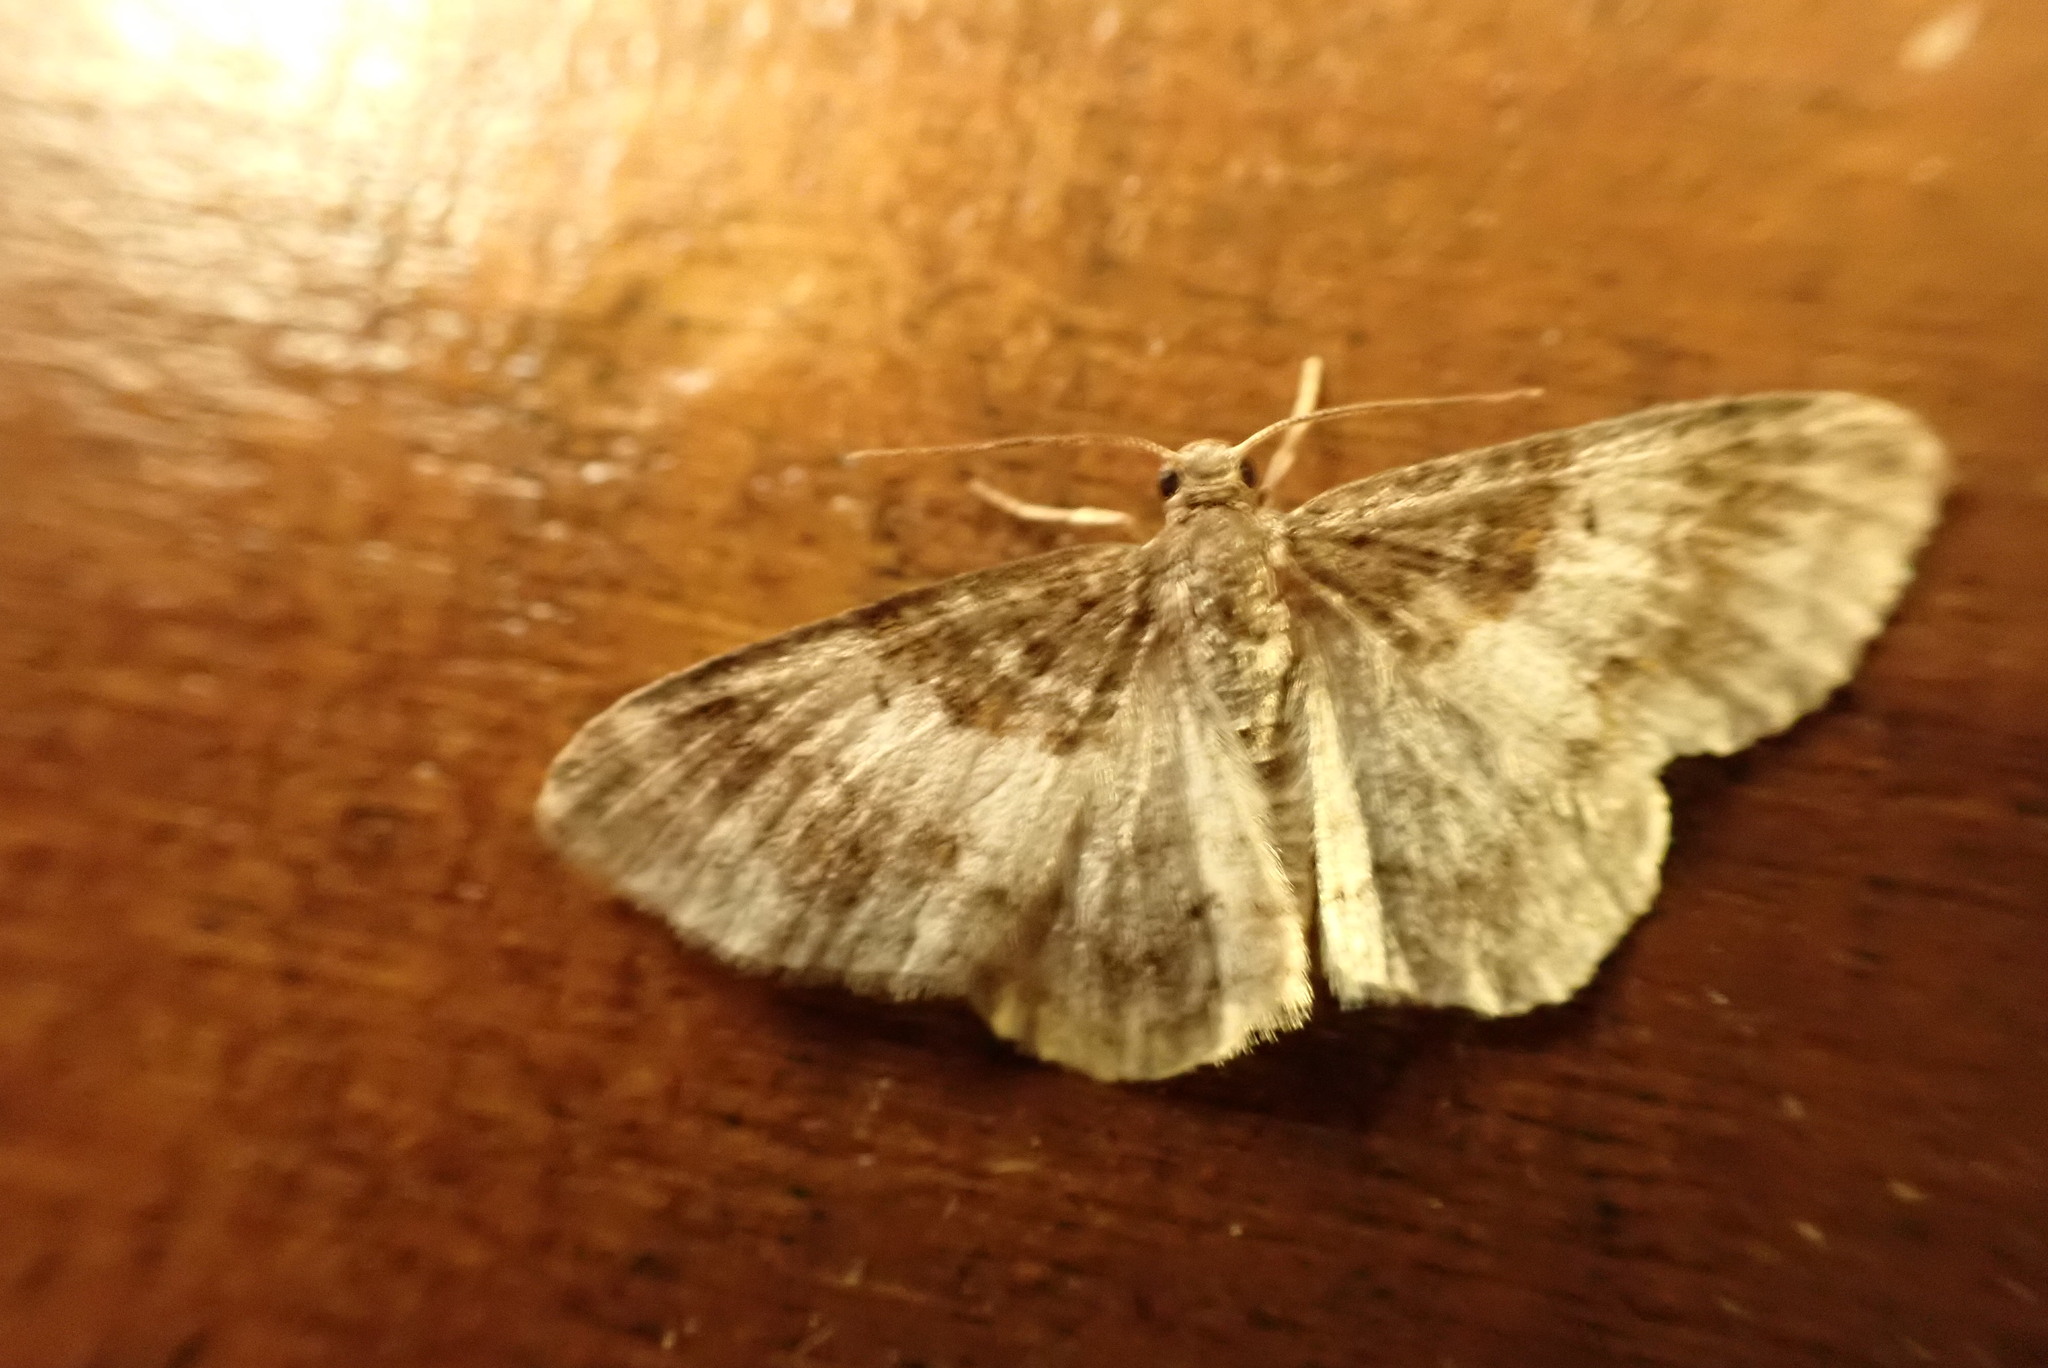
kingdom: Animalia
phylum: Arthropoda
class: Insecta
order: Lepidoptera
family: Geometridae
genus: Hydrelia
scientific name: Hydrelia condensata
